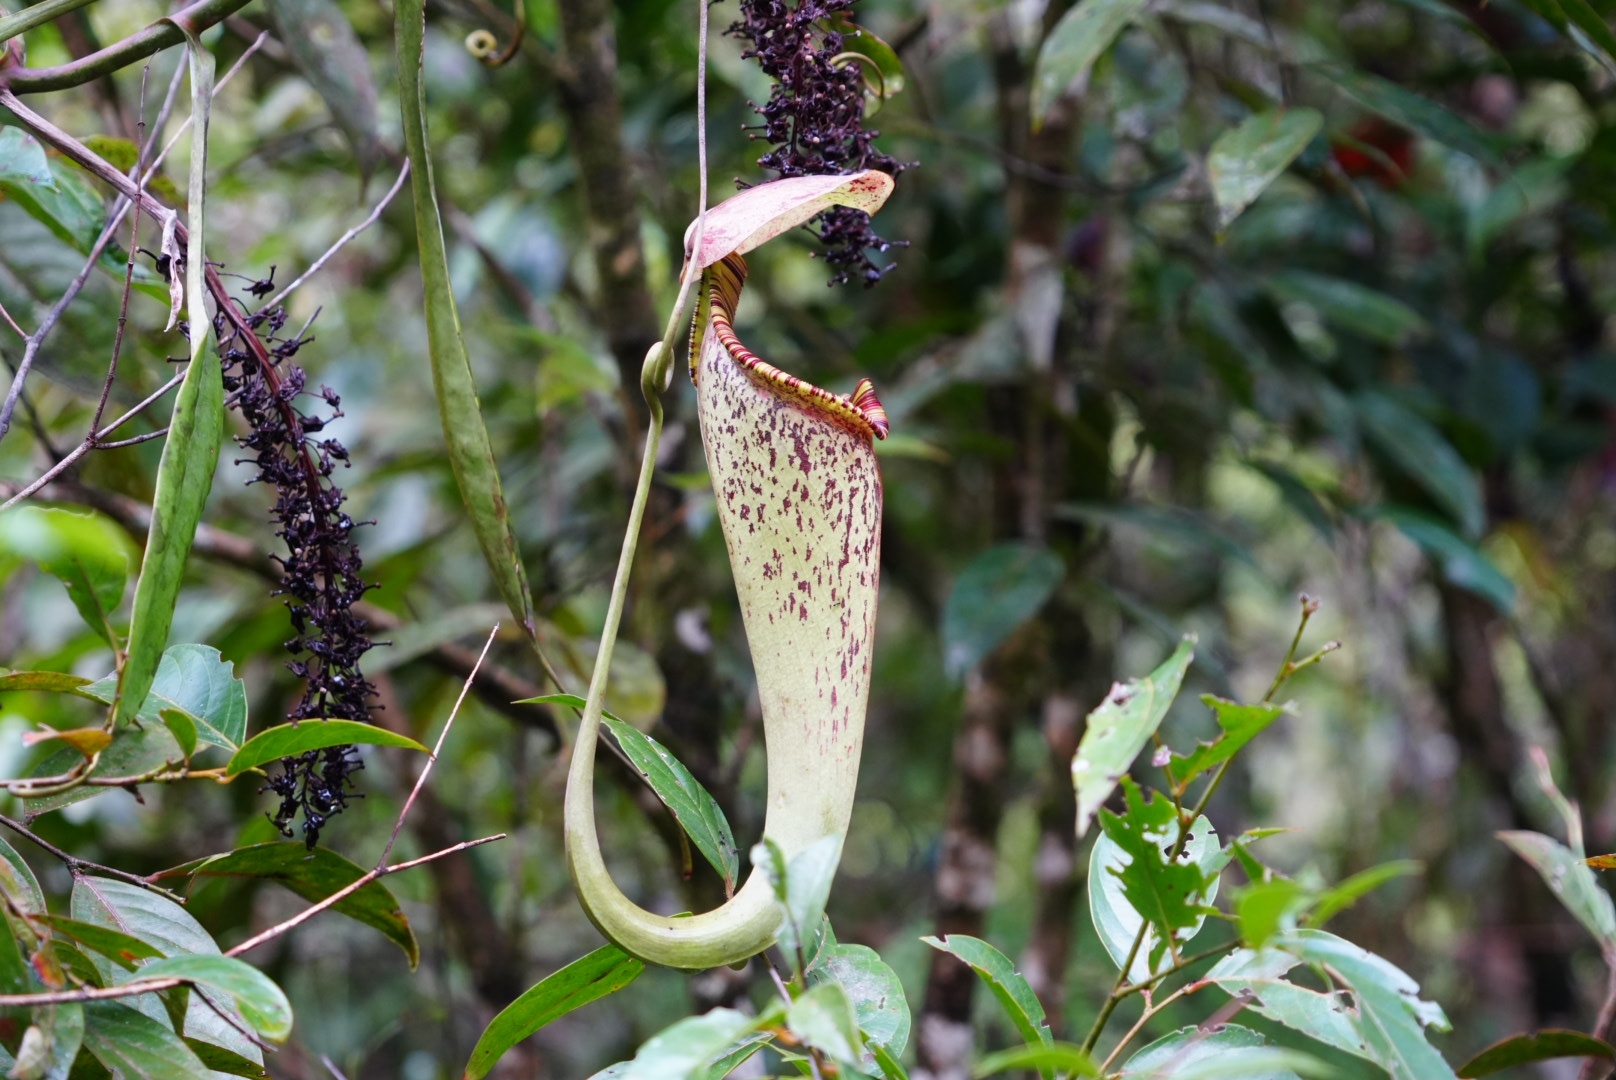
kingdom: Plantae
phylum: Tracheophyta
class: Magnoliopsida
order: Caryophyllales
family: Nepenthaceae
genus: Nepenthes
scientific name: Nepenthes rafflesiana
